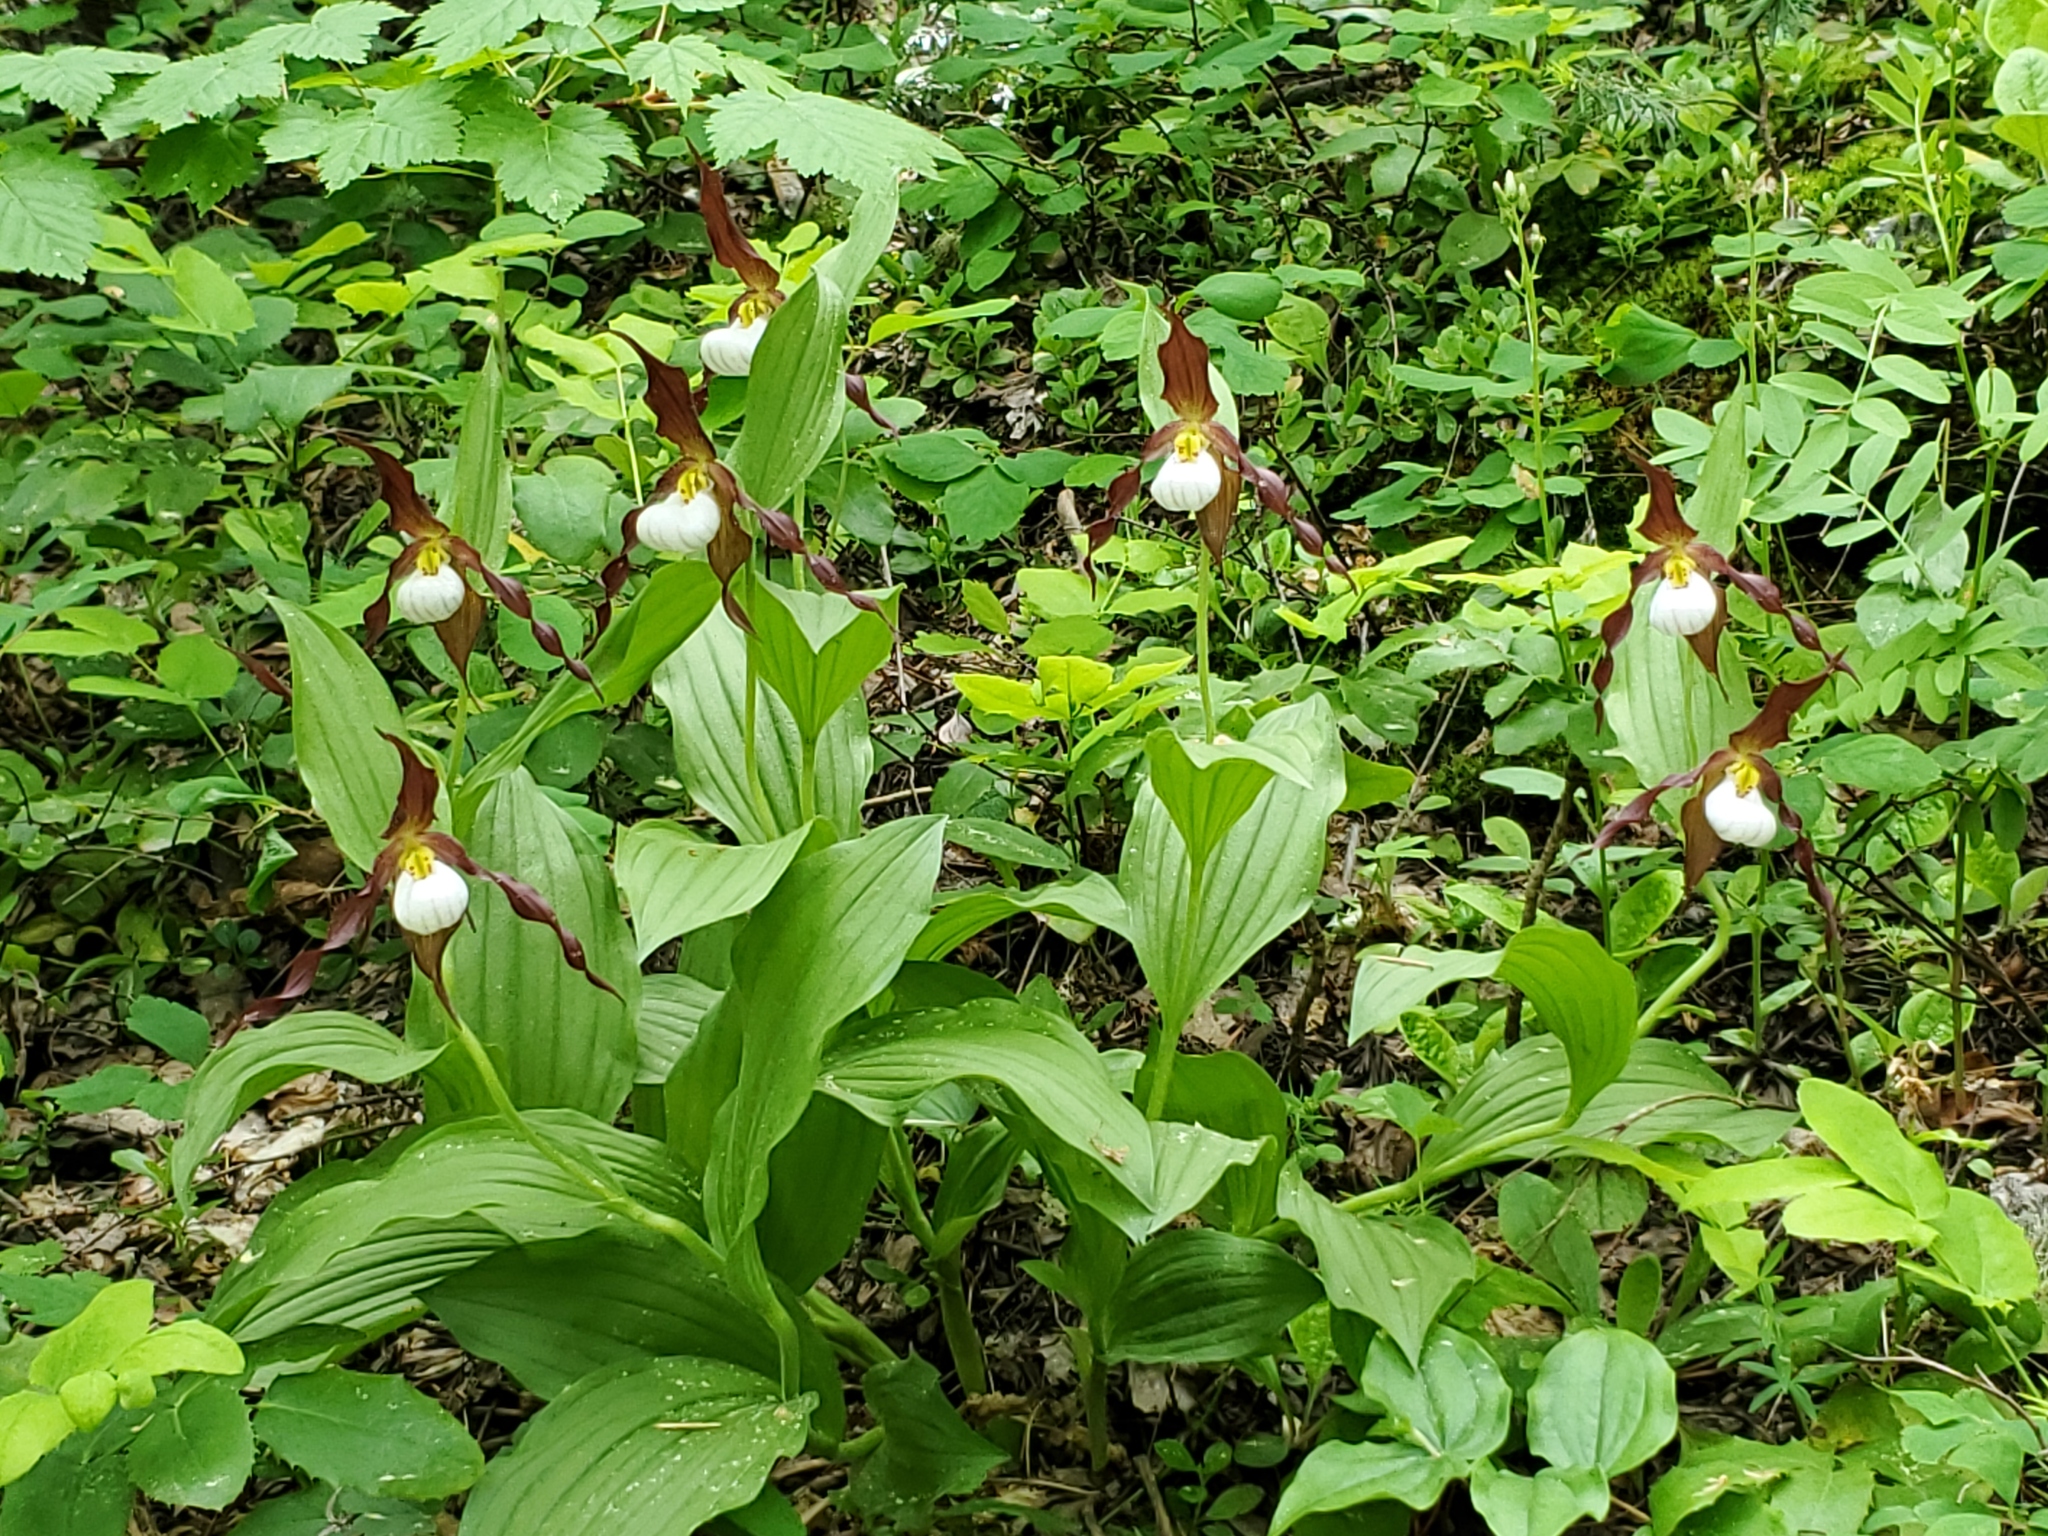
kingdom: Plantae
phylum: Tracheophyta
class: Liliopsida
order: Asparagales
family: Orchidaceae
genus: Cypripedium
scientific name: Cypripedium montanum
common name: Mountain lady's-slipper
